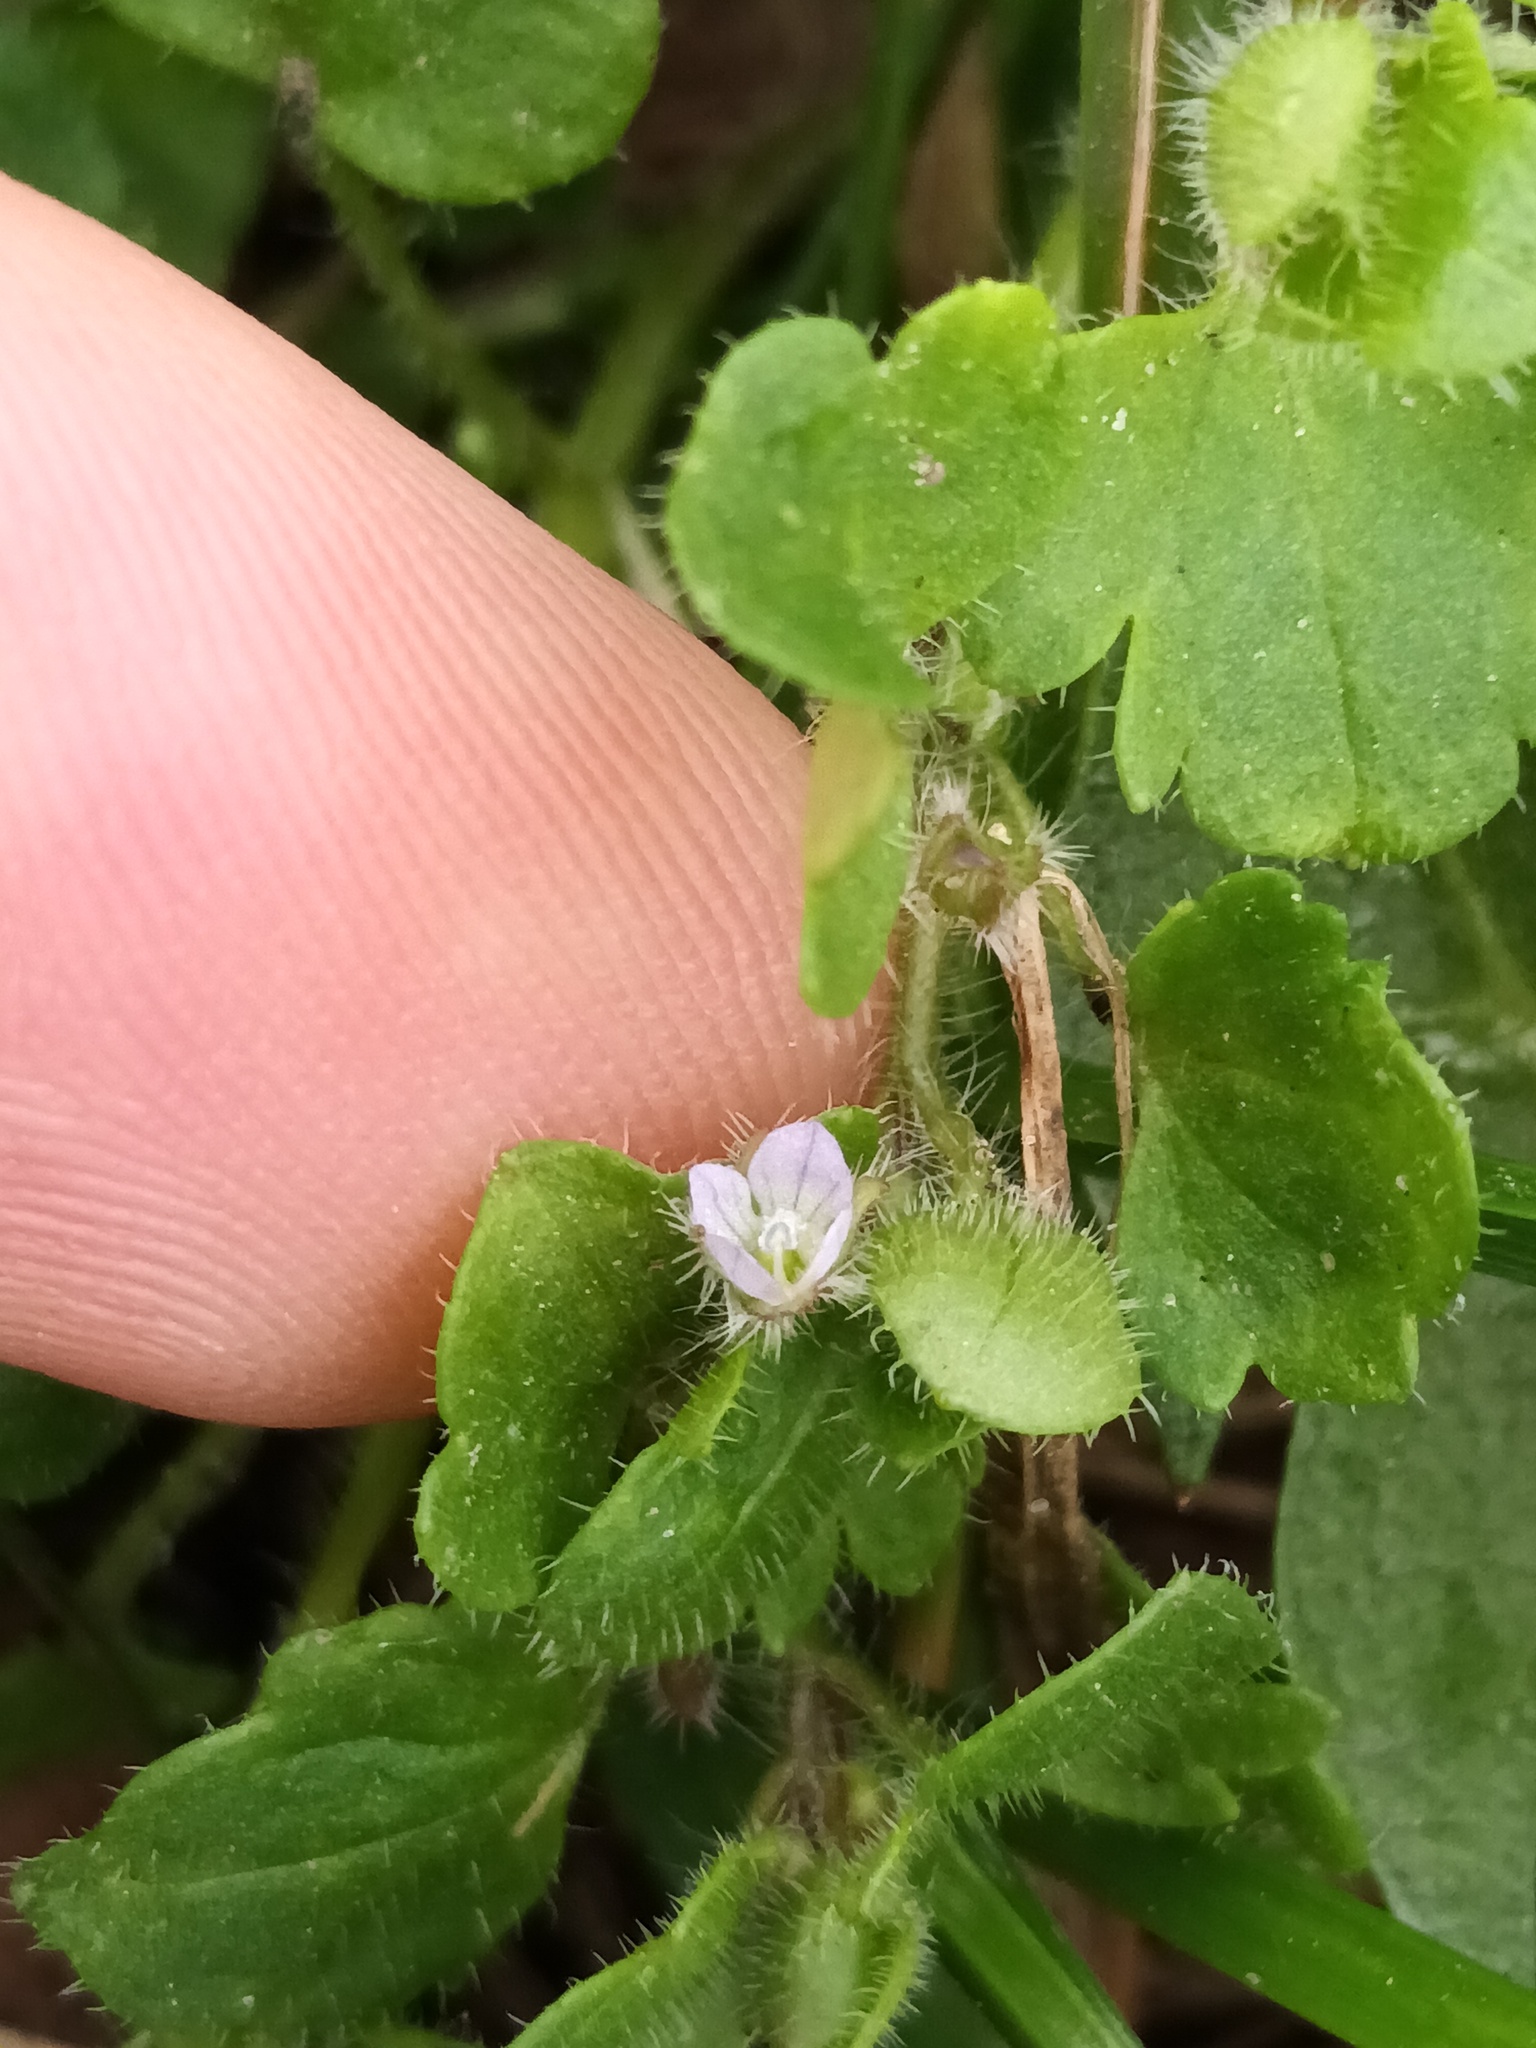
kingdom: Plantae
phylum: Tracheophyta
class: Magnoliopsida
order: Lamiales
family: Plantaginaceae
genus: Veronica
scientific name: Veronica sublobata
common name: False ivy-leaved speedwell
